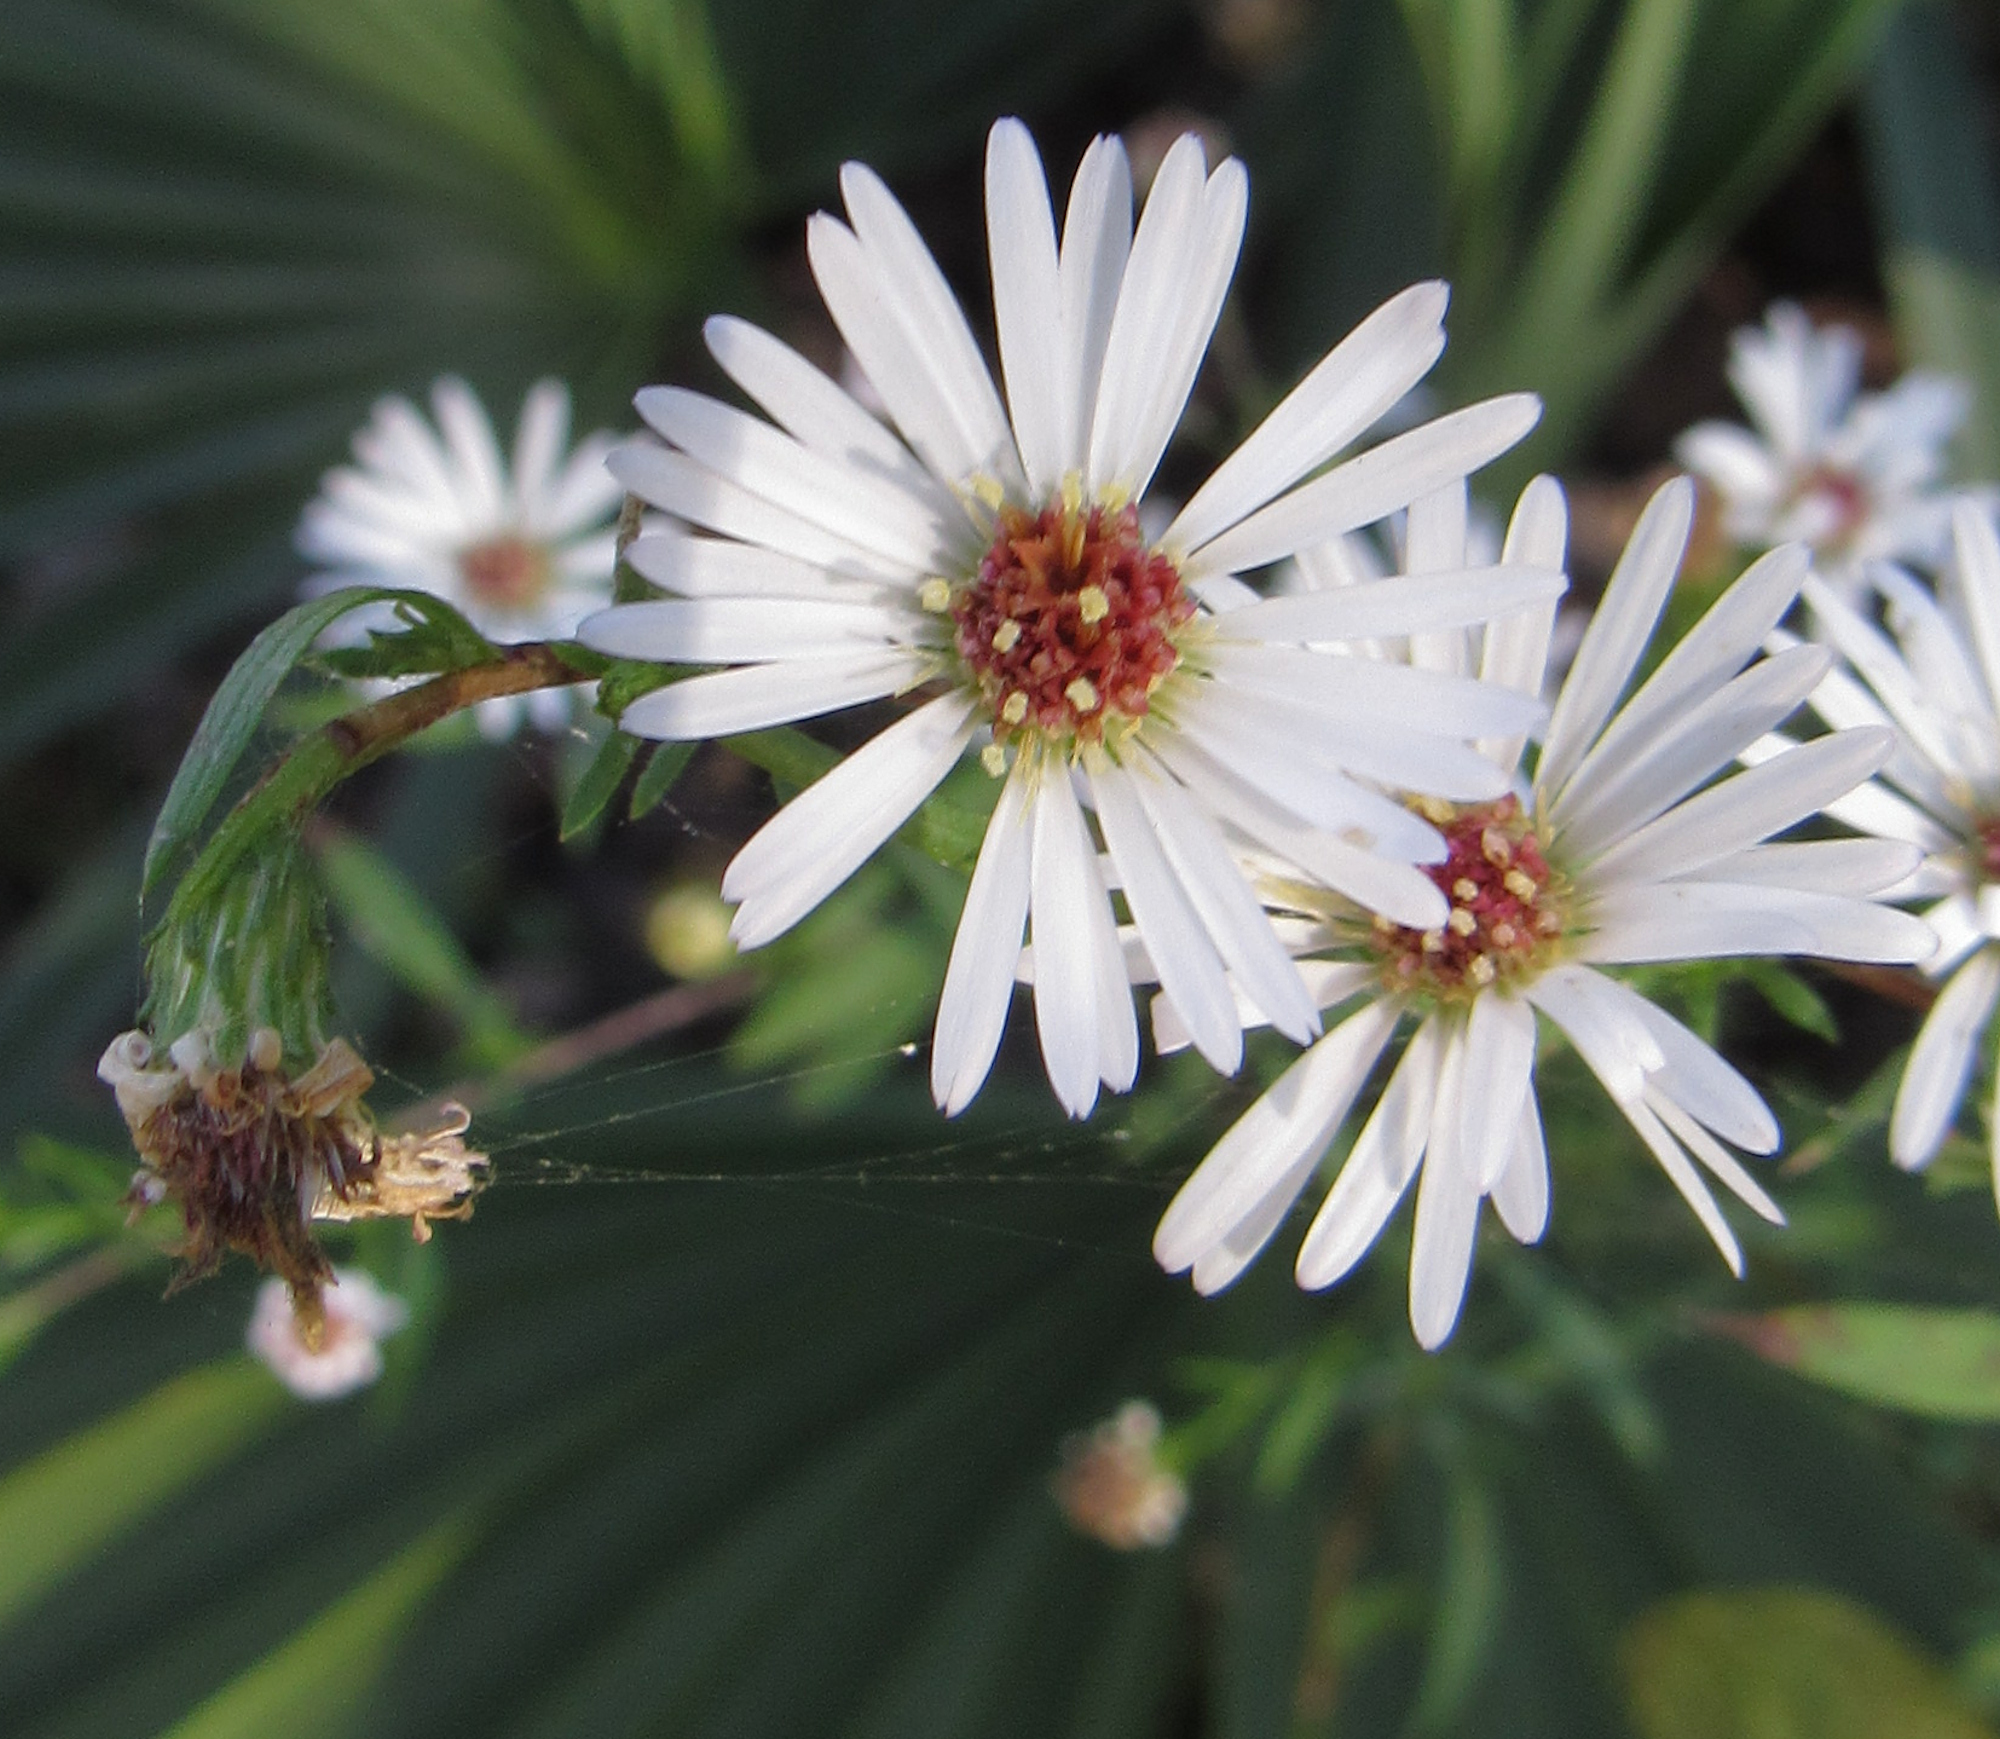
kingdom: Plantae
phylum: Tracheophyta
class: Magnoliopsida
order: Asterales
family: Asteraceae
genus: Symphyotrichum
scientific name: Symphyotrichum lanceolatum
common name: Panicled aster
